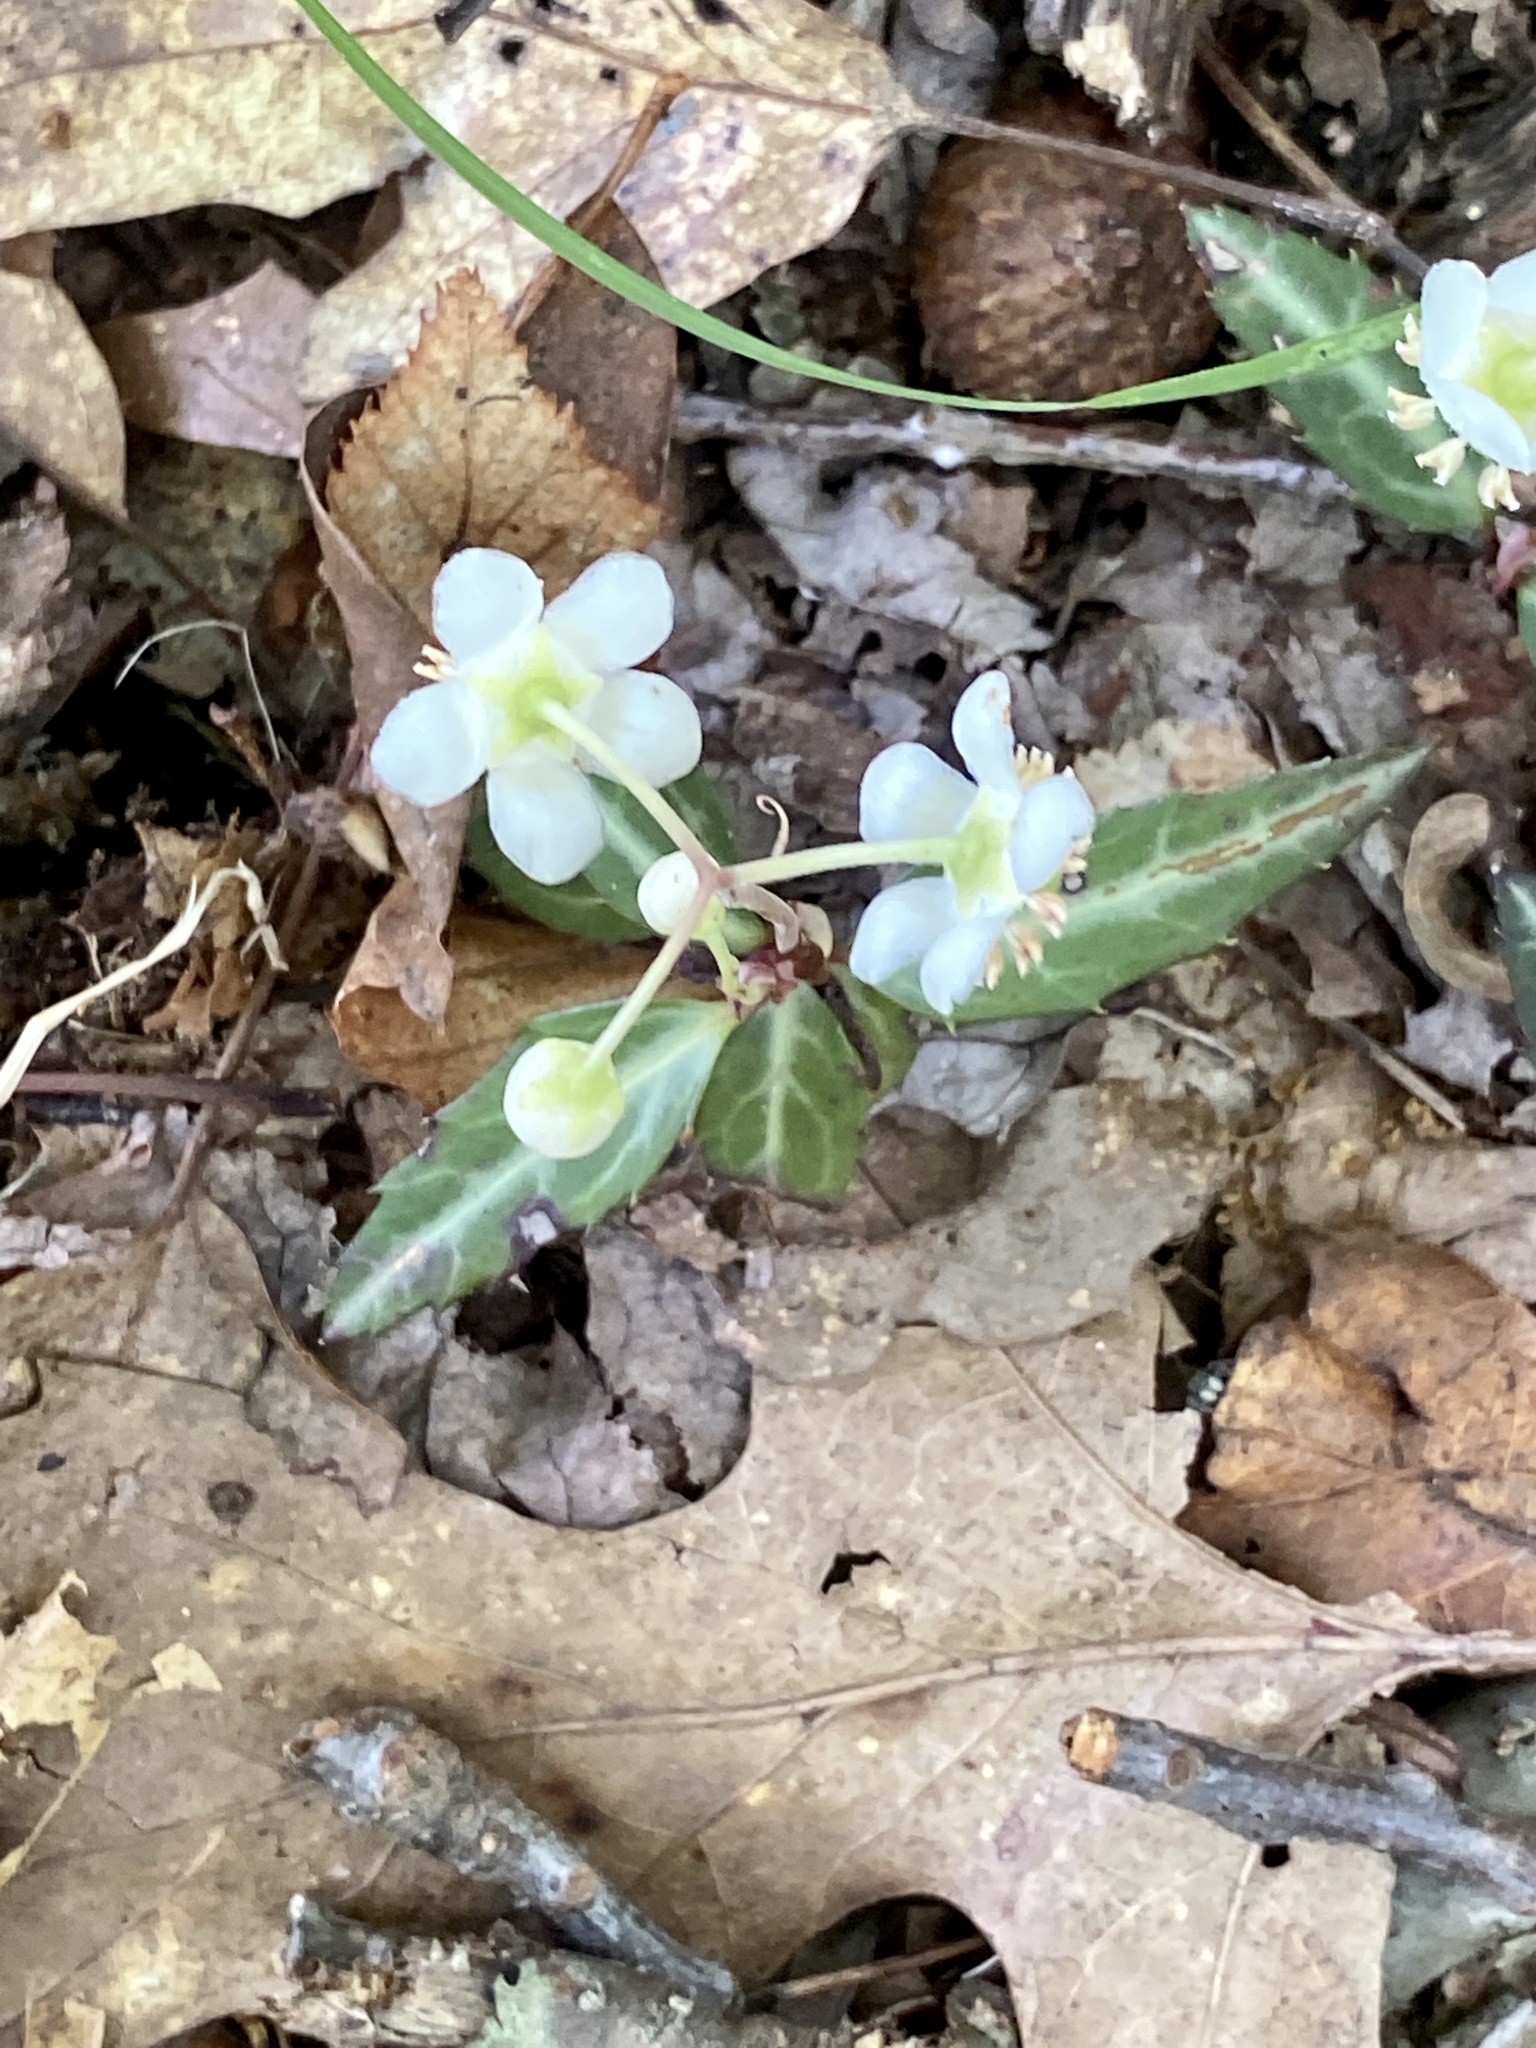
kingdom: Plantae
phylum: Tracheophyta
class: Magnoliopsida
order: Ericales
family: Ericaceae
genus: Chimaphila
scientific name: Chimaphila maculata
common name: Spotted pipsissewa
